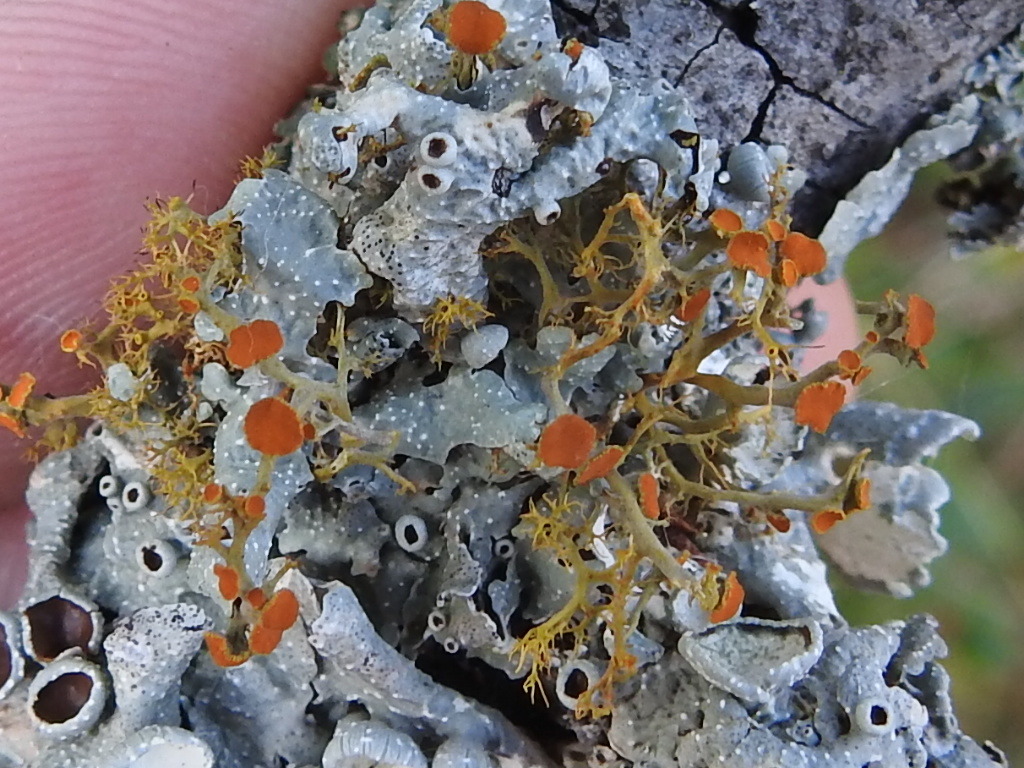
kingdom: Fungi
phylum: Ascomycota
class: Lecanoromycetes
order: Teloschistales
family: Teloschistaceae
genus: Teloschistes
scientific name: Teloschistes exilis
